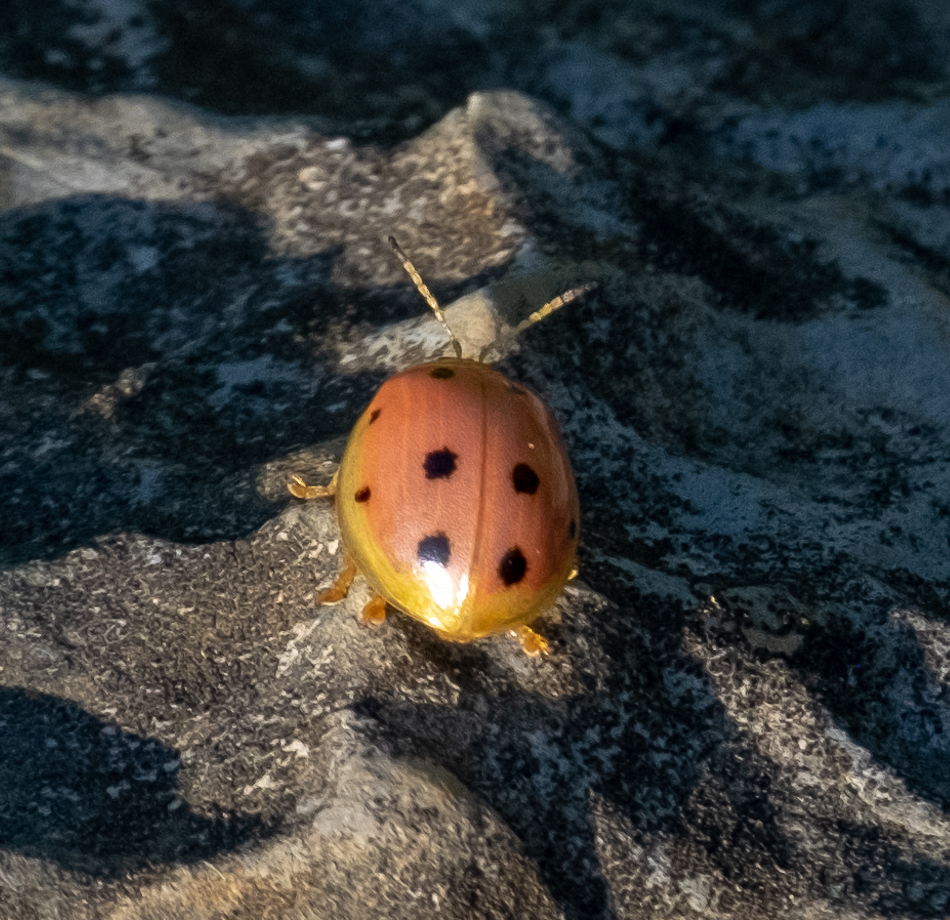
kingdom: Animalia
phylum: Arthropoda
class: Insecta
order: Coleoptera
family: Chrysomelidae
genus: Oides
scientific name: Oides decempunctata
